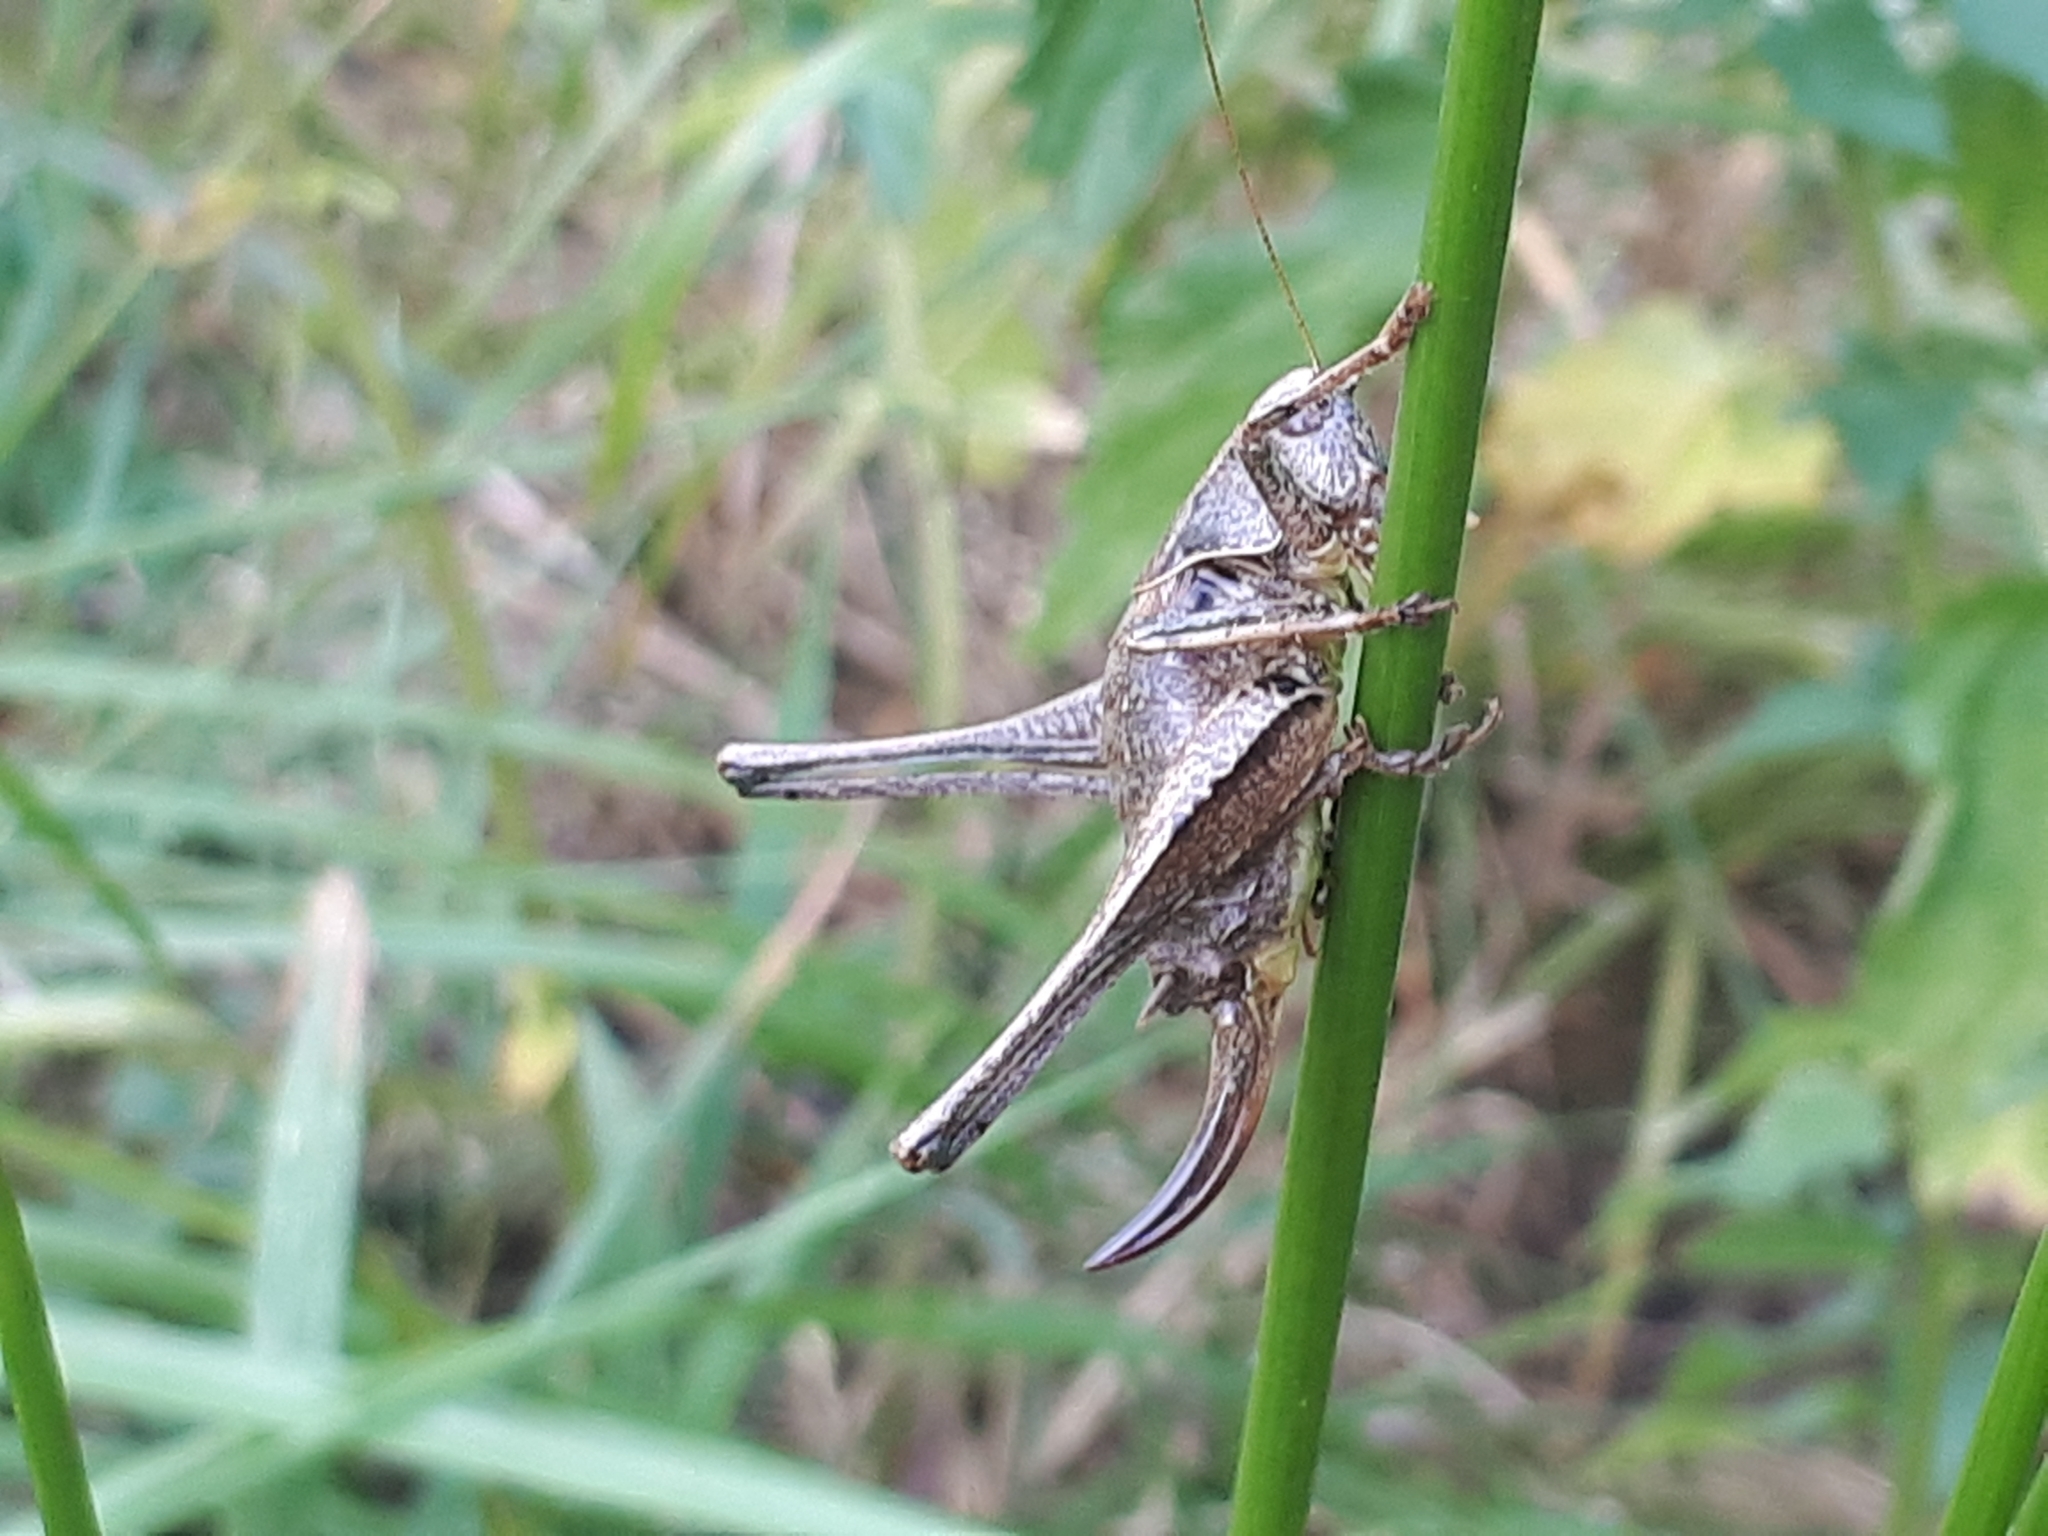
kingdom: Animalia
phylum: Arthropoda
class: Insecta
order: Orthoptera
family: Tettigoniidae
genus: Pholidoptera
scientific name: Pholidoptera griseoaptera
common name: Dark bush-cricket
